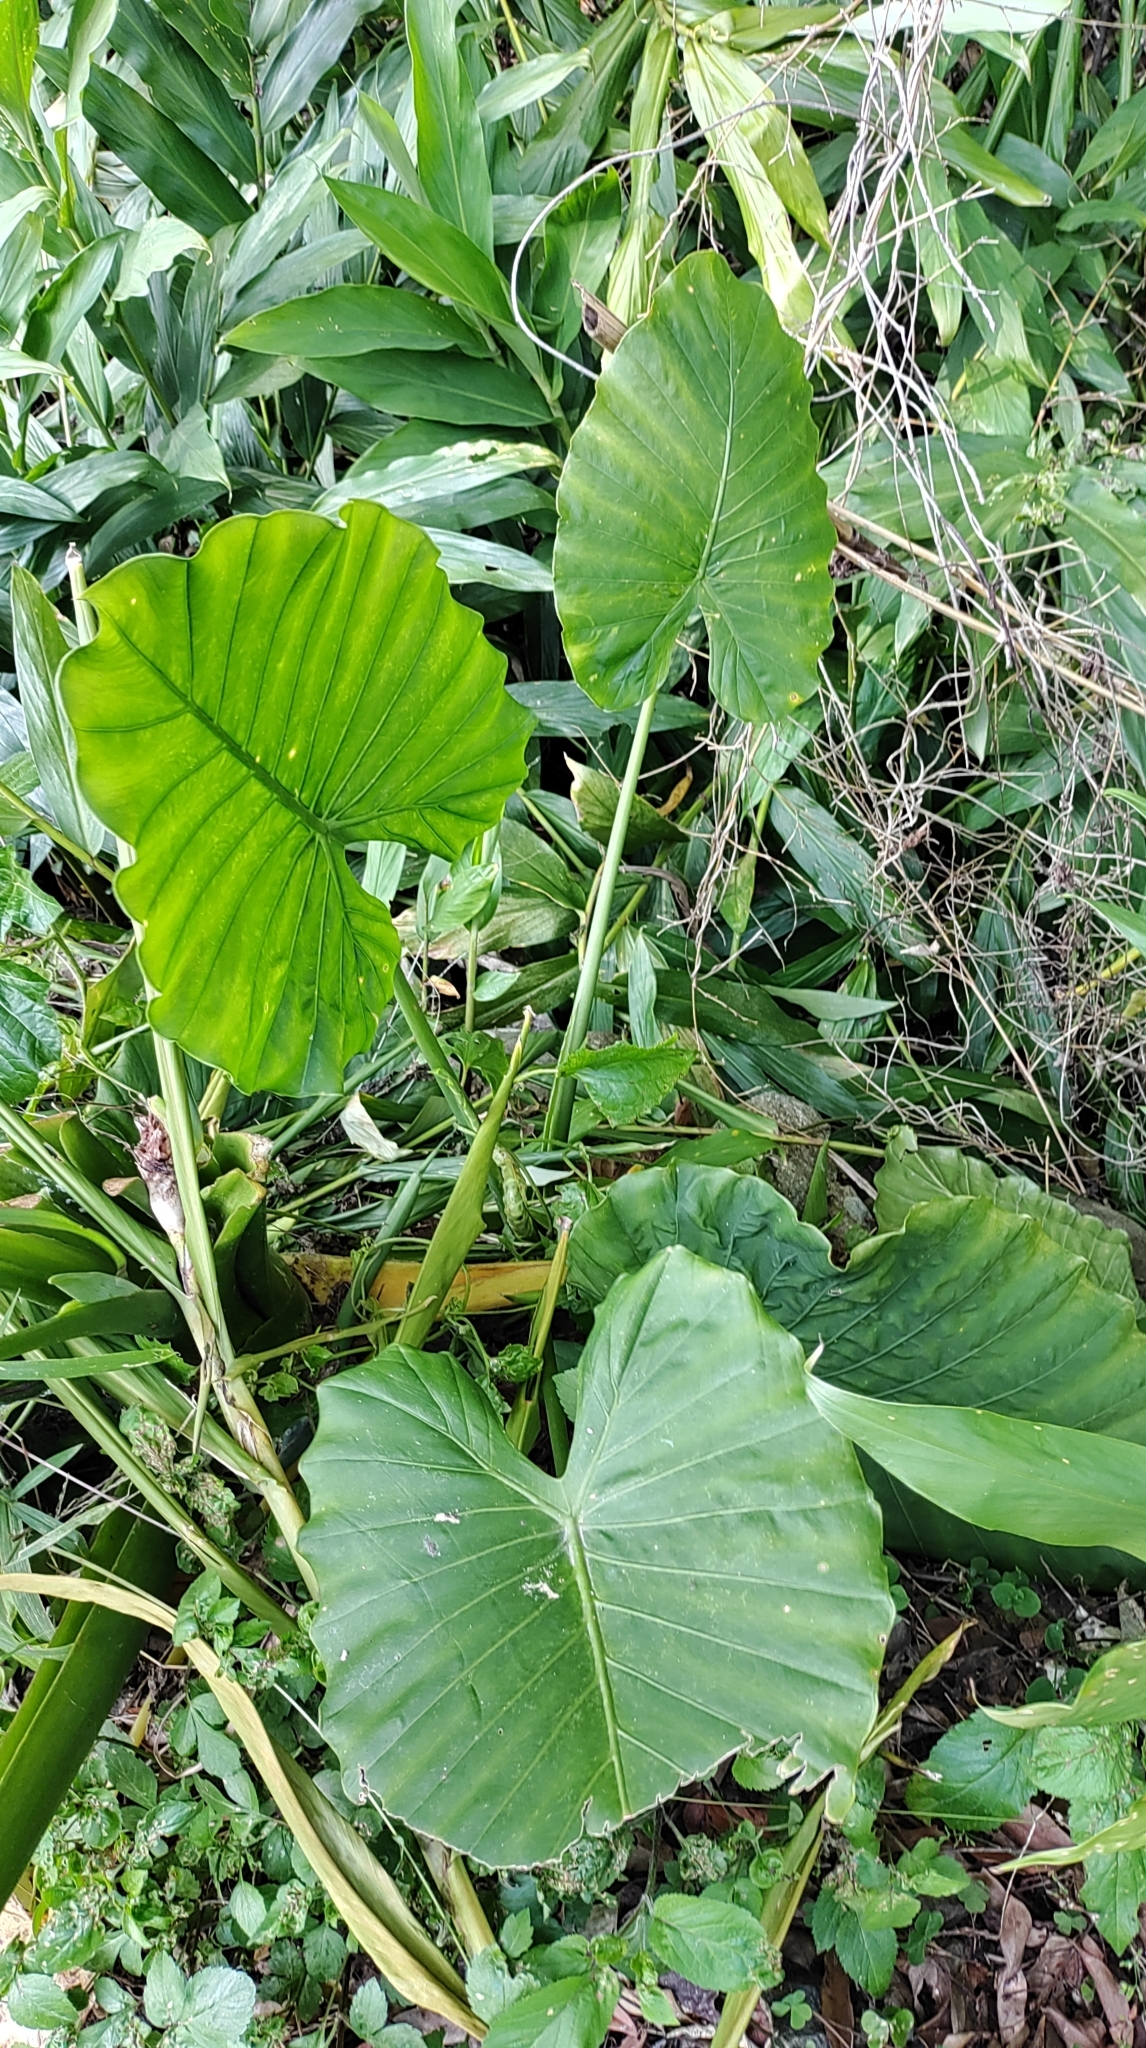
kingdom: Plantae
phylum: Tracheophyta
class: Liliopsida
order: Alismatales
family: Araceae
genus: Alocasia
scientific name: Alocasia odora
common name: Asian taro
